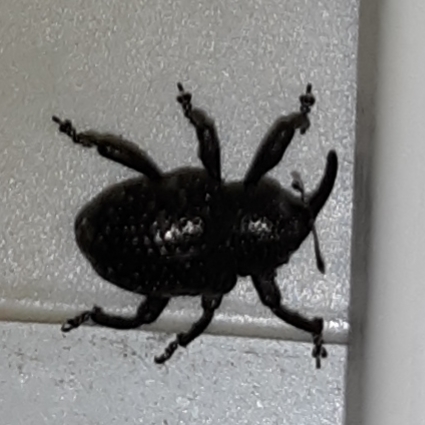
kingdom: Animalia
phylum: Arthropoda
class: Insecta
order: Coleoptera
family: Curculionidae
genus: Chalcodermus
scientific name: Chalcodermus aeneus
